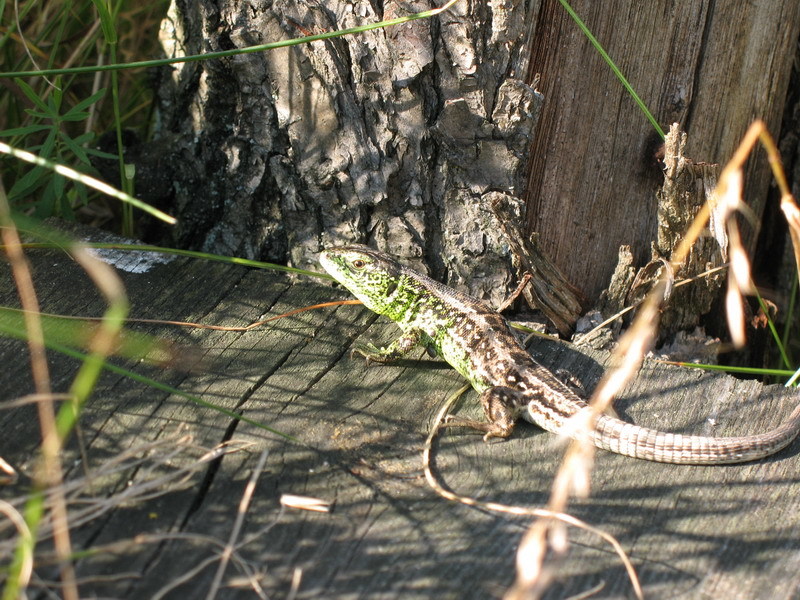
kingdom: Animalia
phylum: Chordata
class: Squamata
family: Lacertidae
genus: Lacerta
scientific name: Lacerta agilis
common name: Sand lizard
